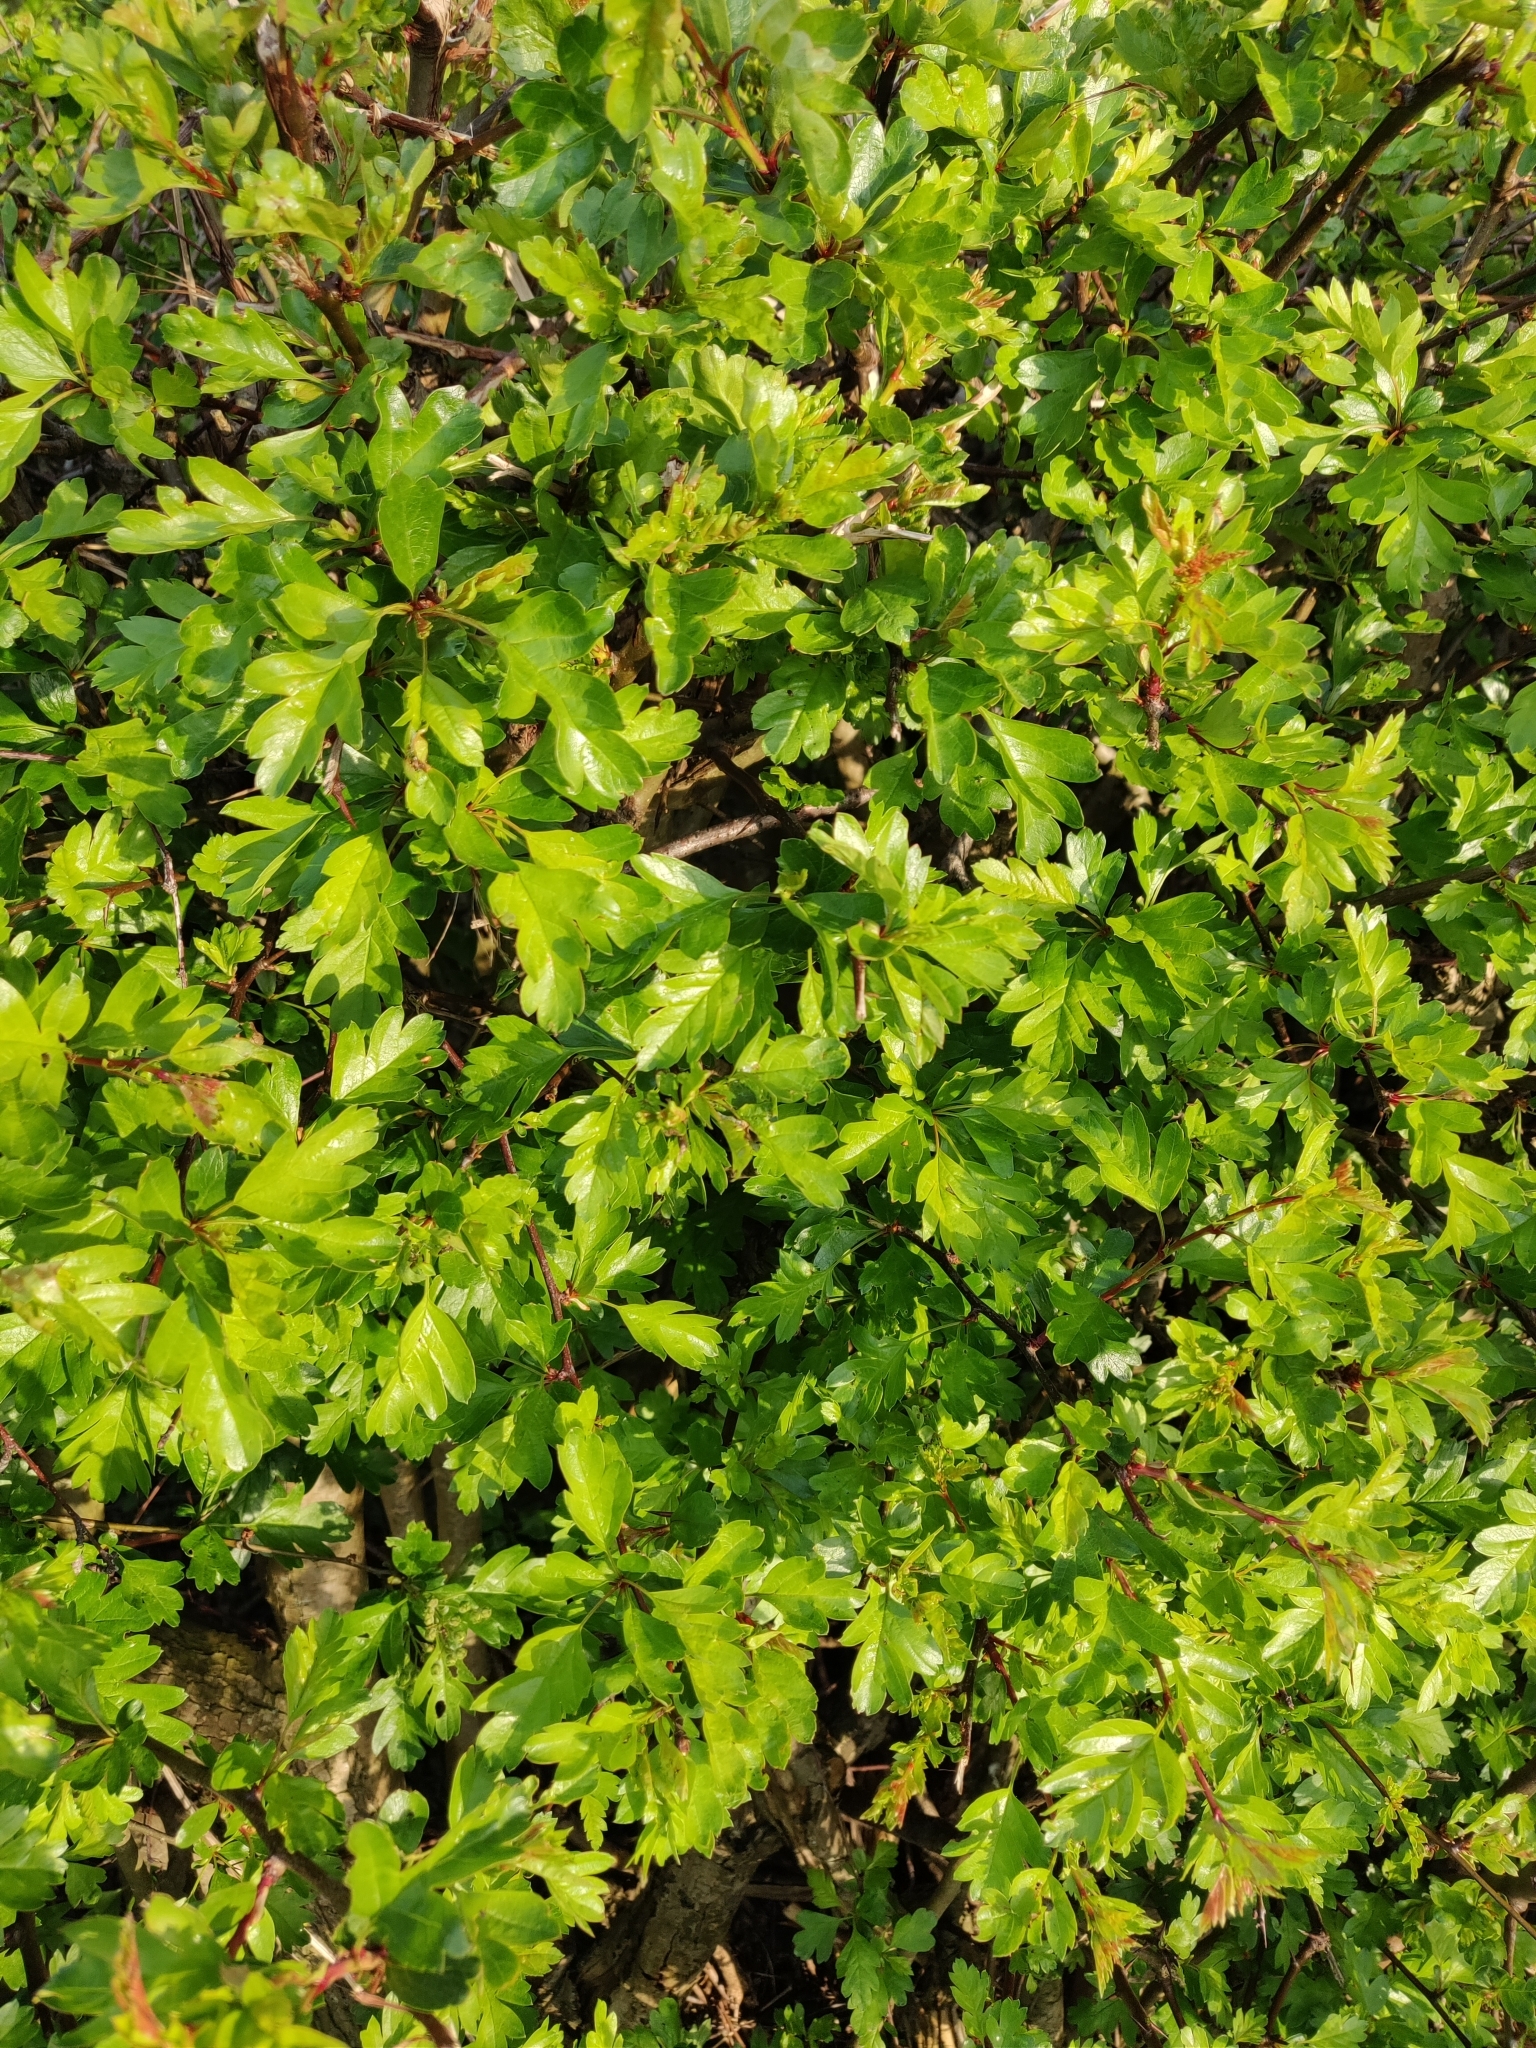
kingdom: Plantae
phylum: Tracheophyta
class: Magnoliopsida
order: Rosales
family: Rosaceae
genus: Crataegus
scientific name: Crataegus monogyna
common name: Hawthorn
